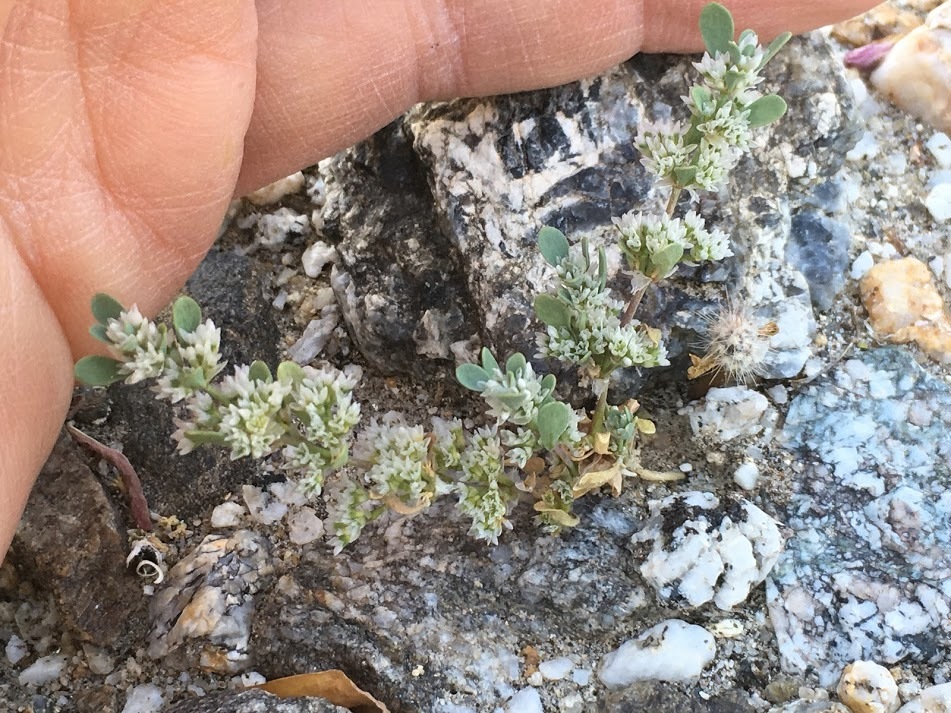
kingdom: Plantae
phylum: Tracheophyta
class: Magnoliopsida
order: Caryophyllales
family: Caryophyllaceae
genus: Achyronychia
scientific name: Achyronychia cooperi
